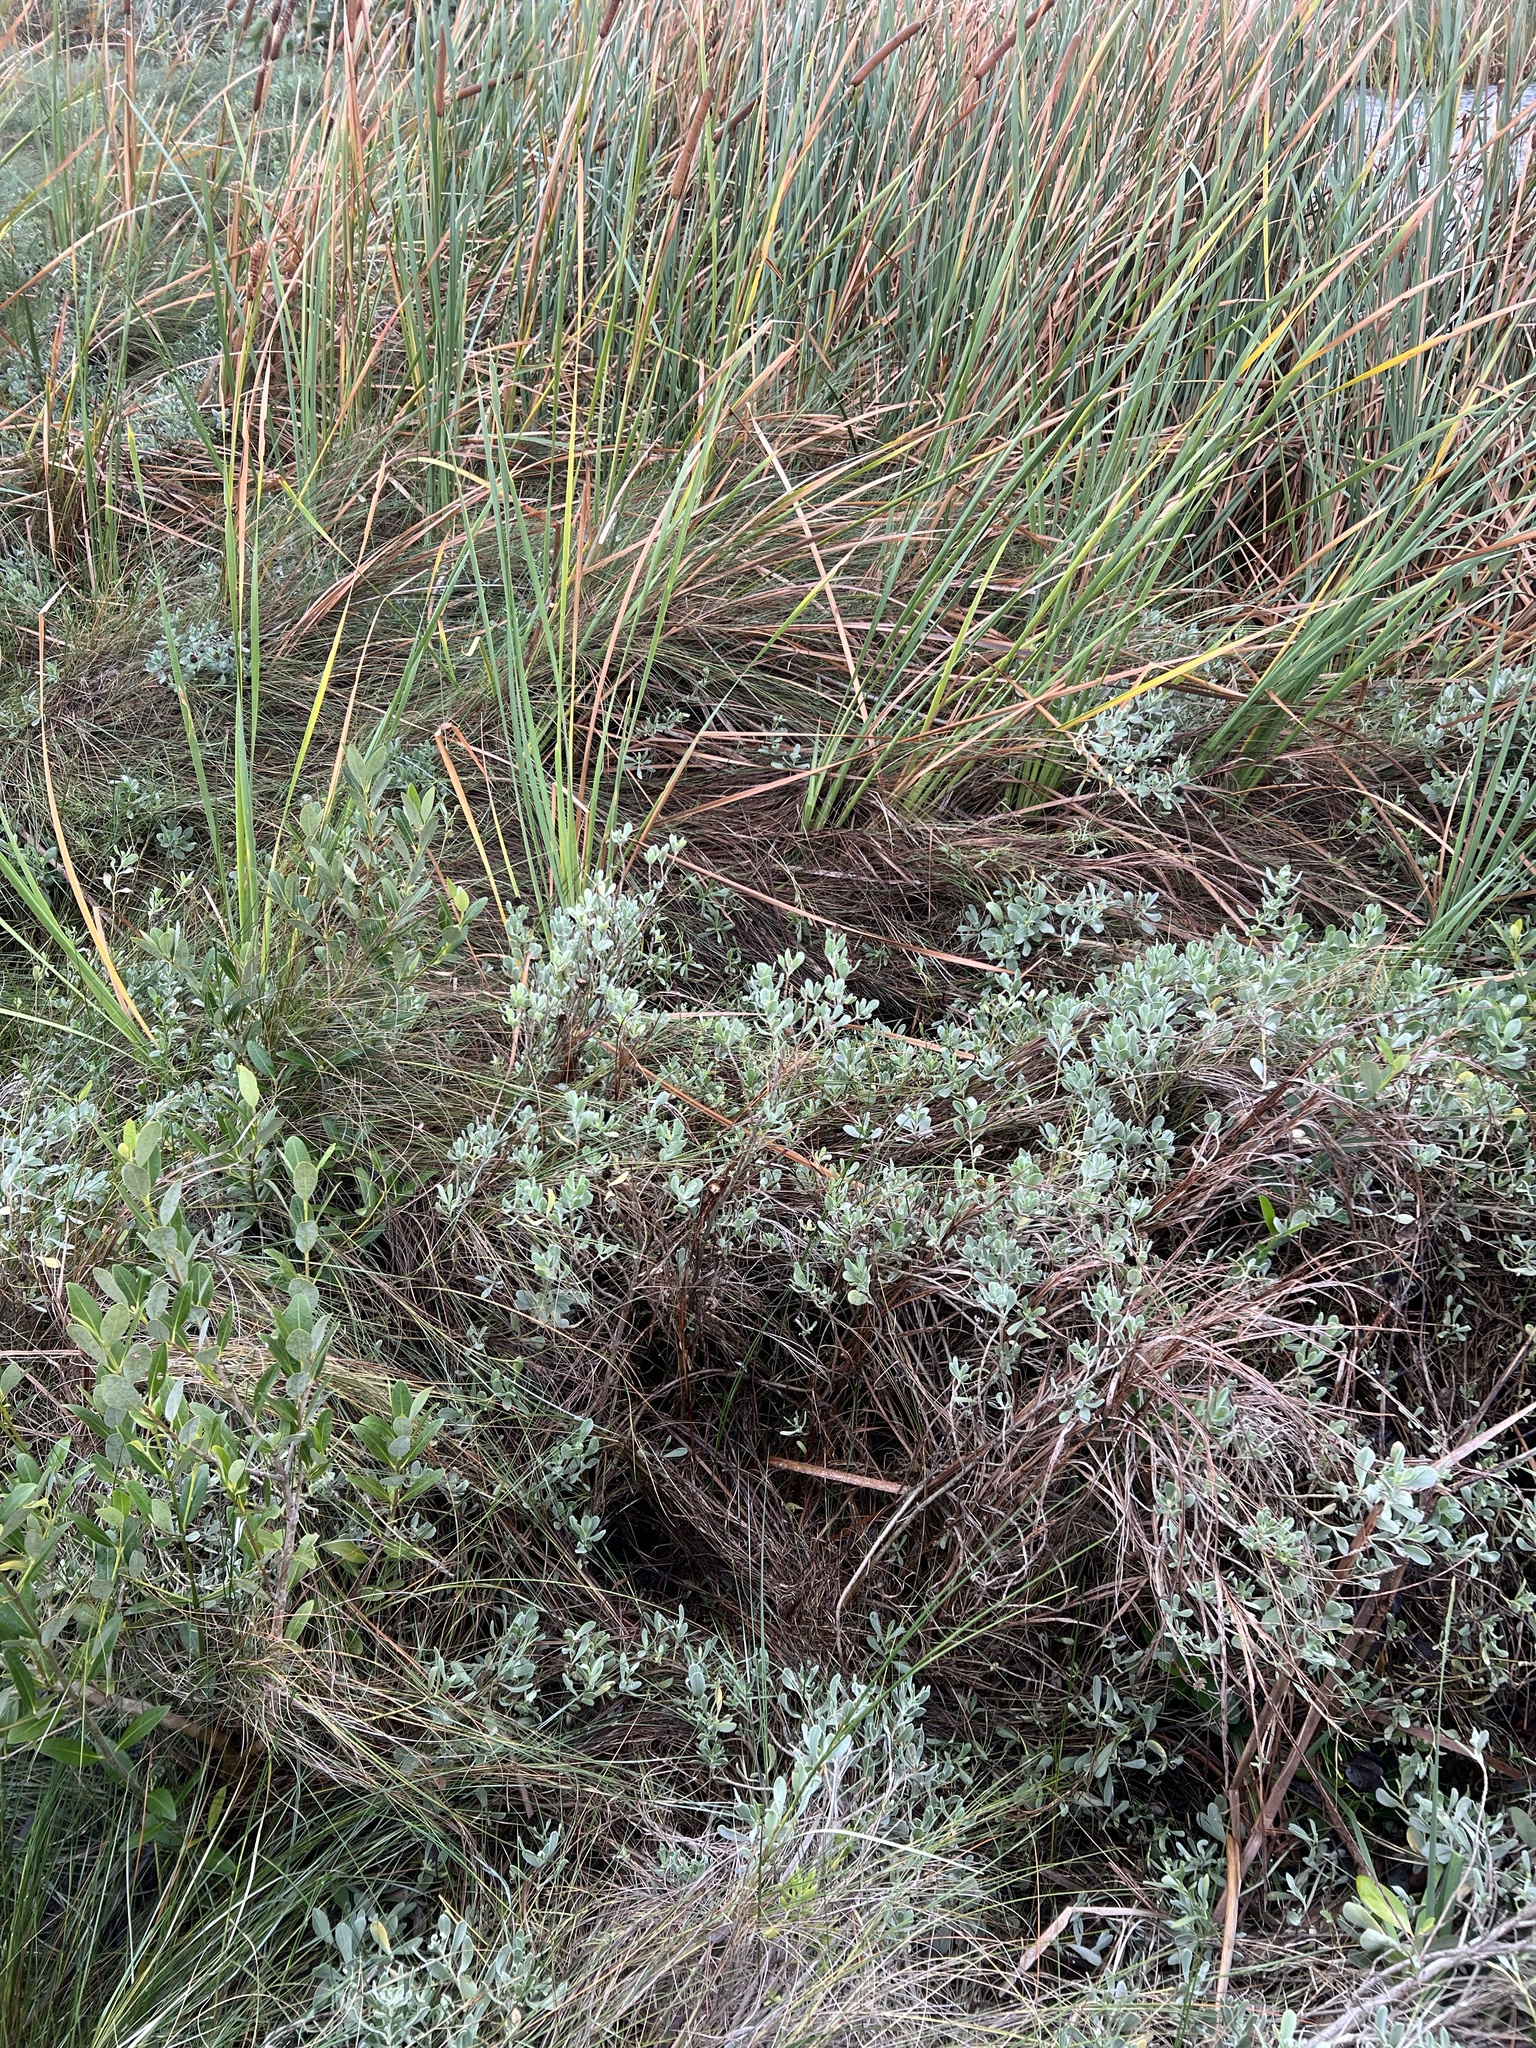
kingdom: Plantae
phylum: Tracheophyta
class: Magnoliopsida
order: Asterales
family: Asteraceae
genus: Borrichia
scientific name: Borrichia frutescens
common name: Sea oxeye
